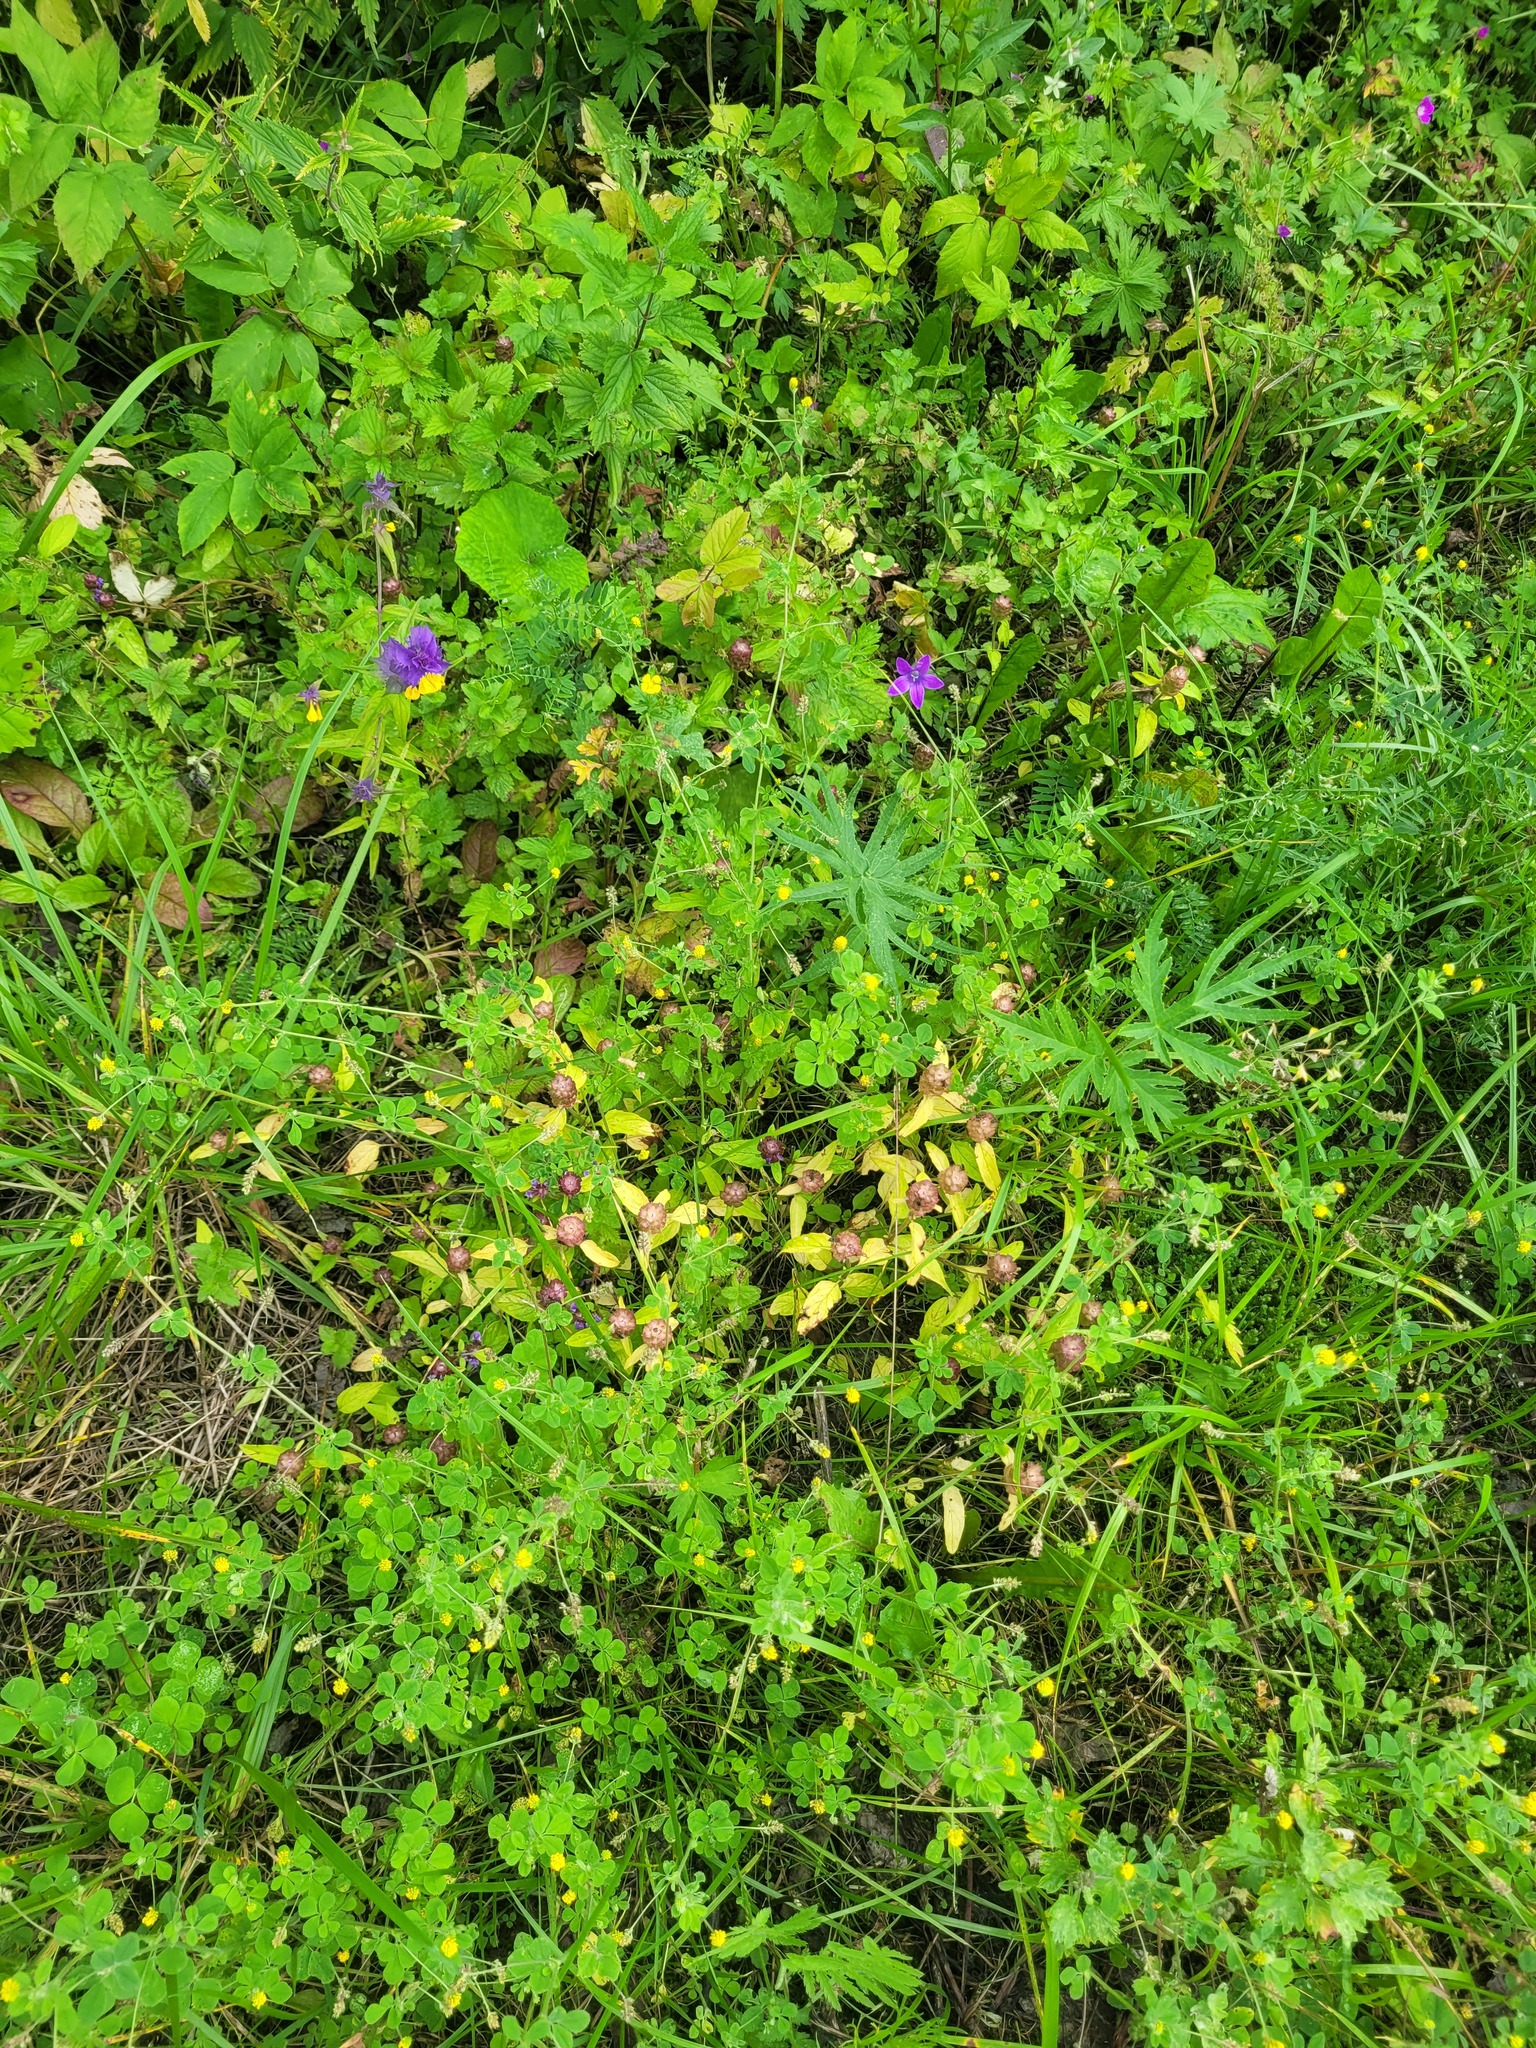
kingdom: Plantae
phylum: Tracheophyta
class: Magnoliopsida
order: Lamiales
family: Lamiaceae
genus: Prunella
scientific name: Prunella vulgaris
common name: Heal-all
